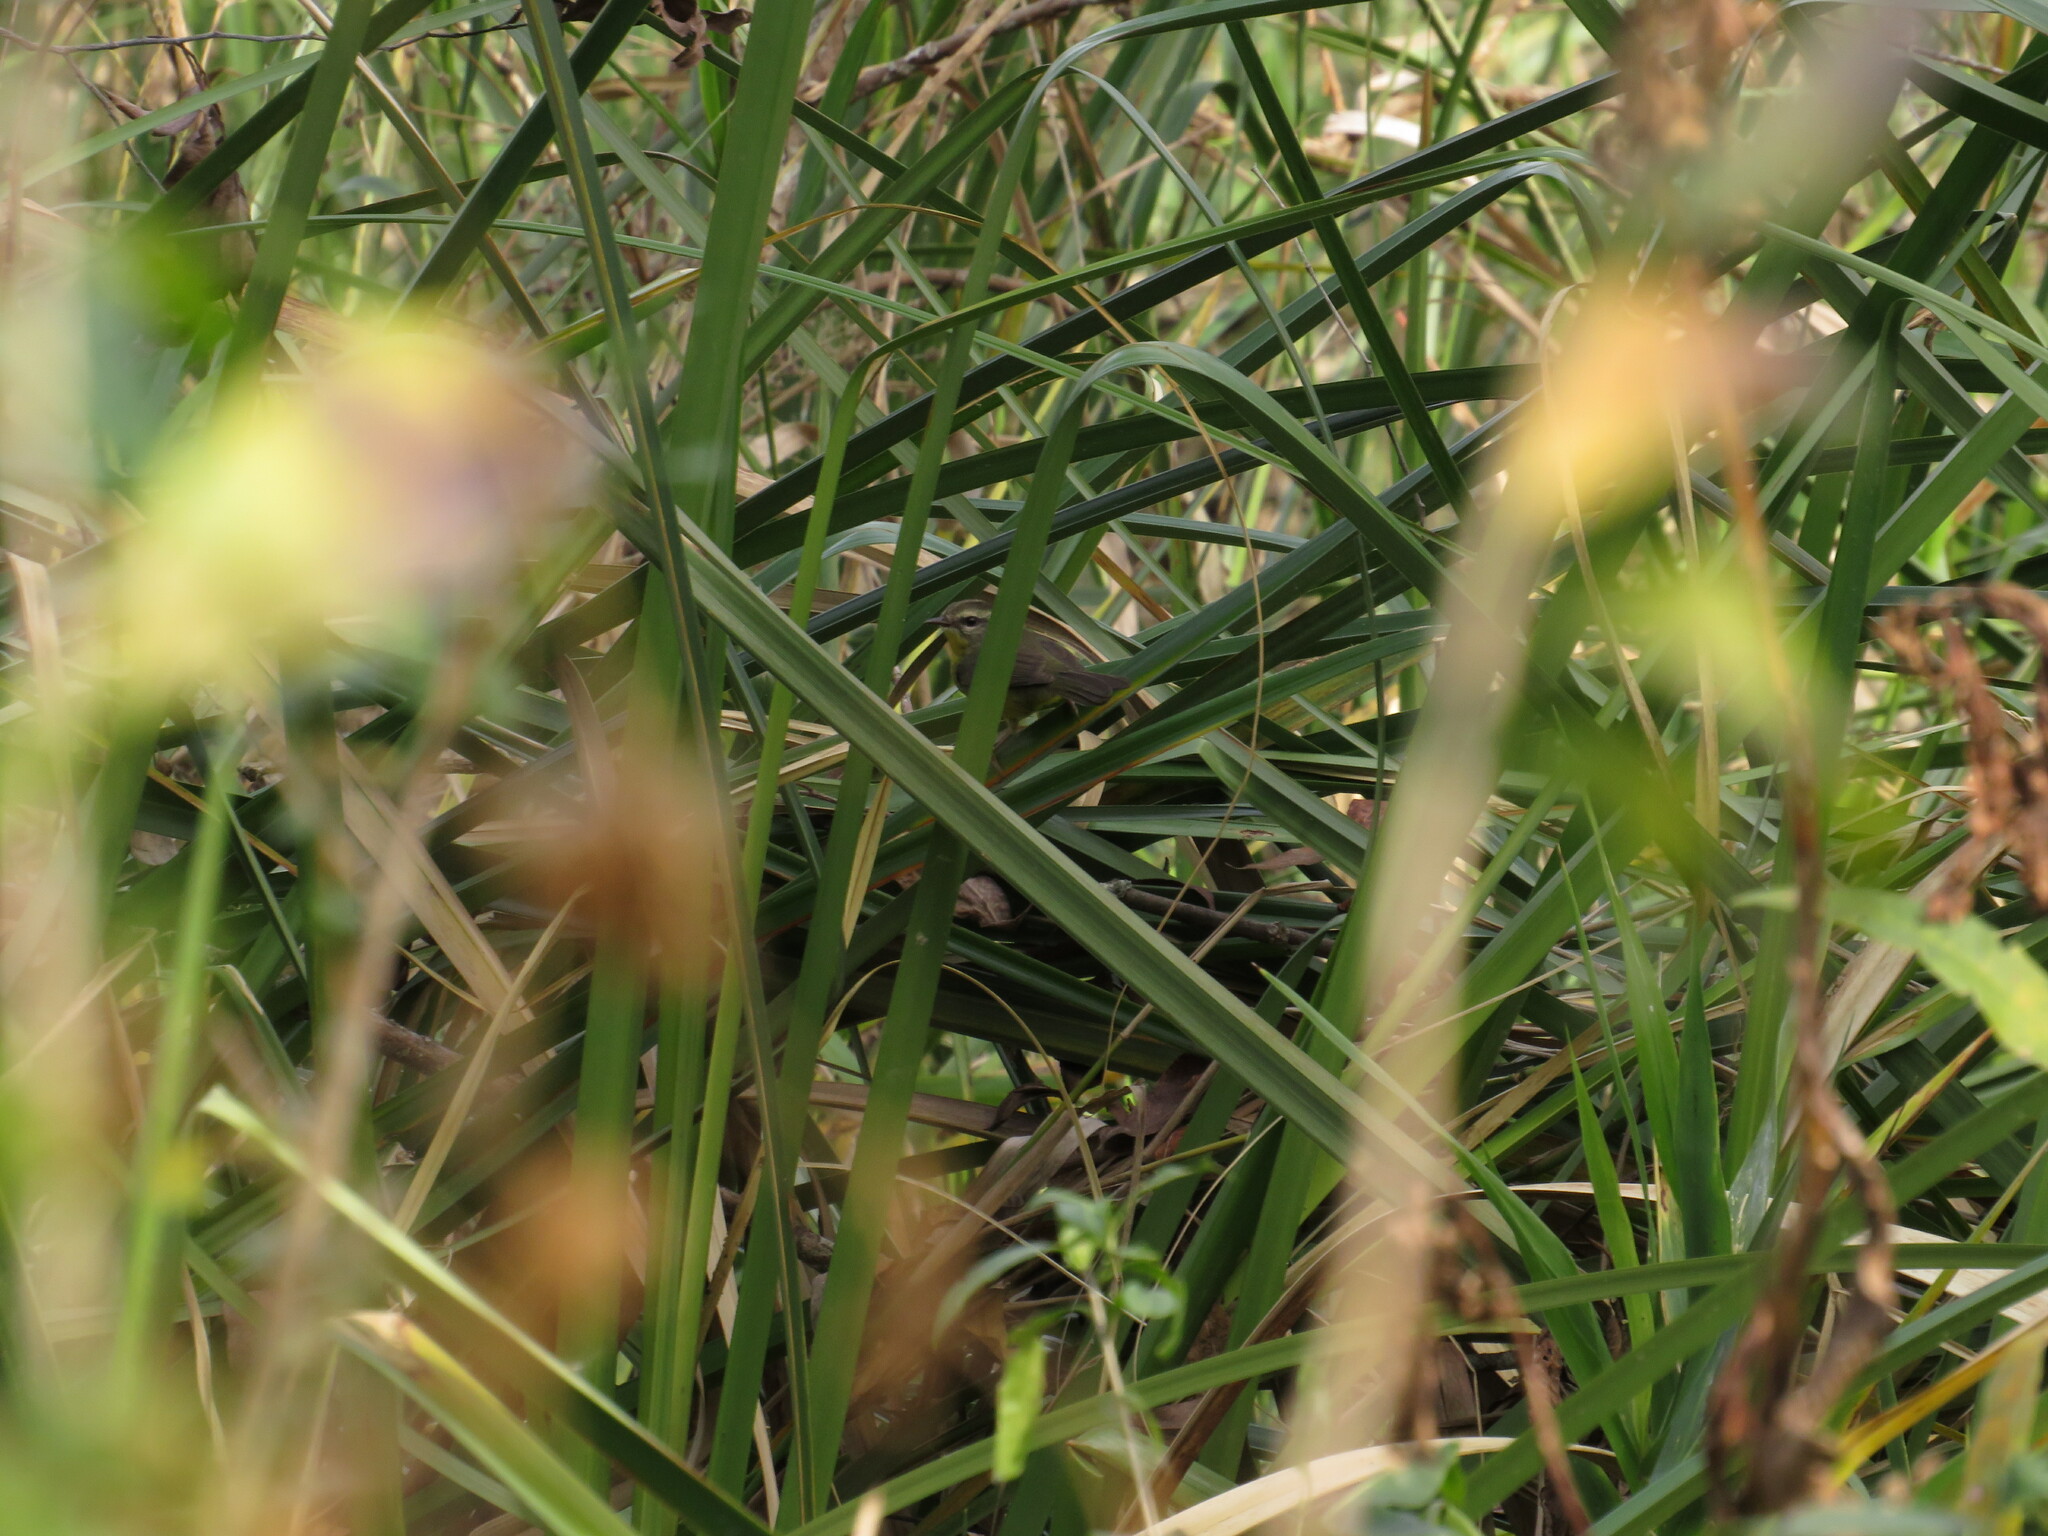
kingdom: Animalia
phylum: Chordata
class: Aves
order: Passeriformes
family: Parulidae
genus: Basileuterus
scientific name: Basileuterus culicivorus
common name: Golden-crowned warbler
